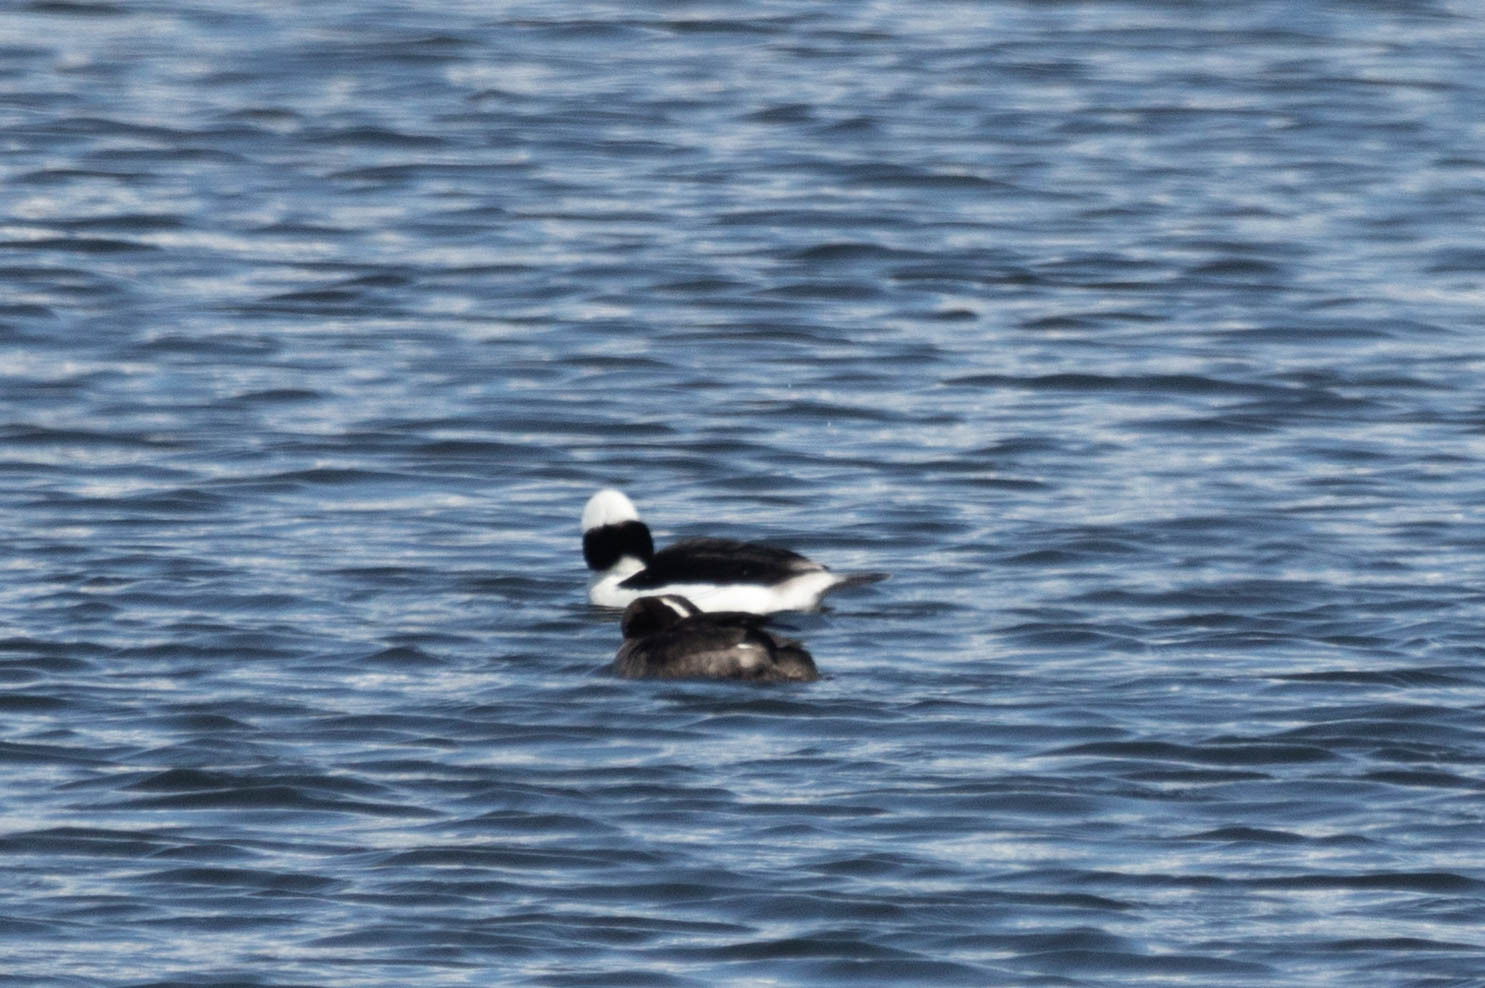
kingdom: Animalia
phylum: Chordata
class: Aves
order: Anseriformes
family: Anatidae
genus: Bucephala
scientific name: Bucephala albeola
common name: Bufflehead
